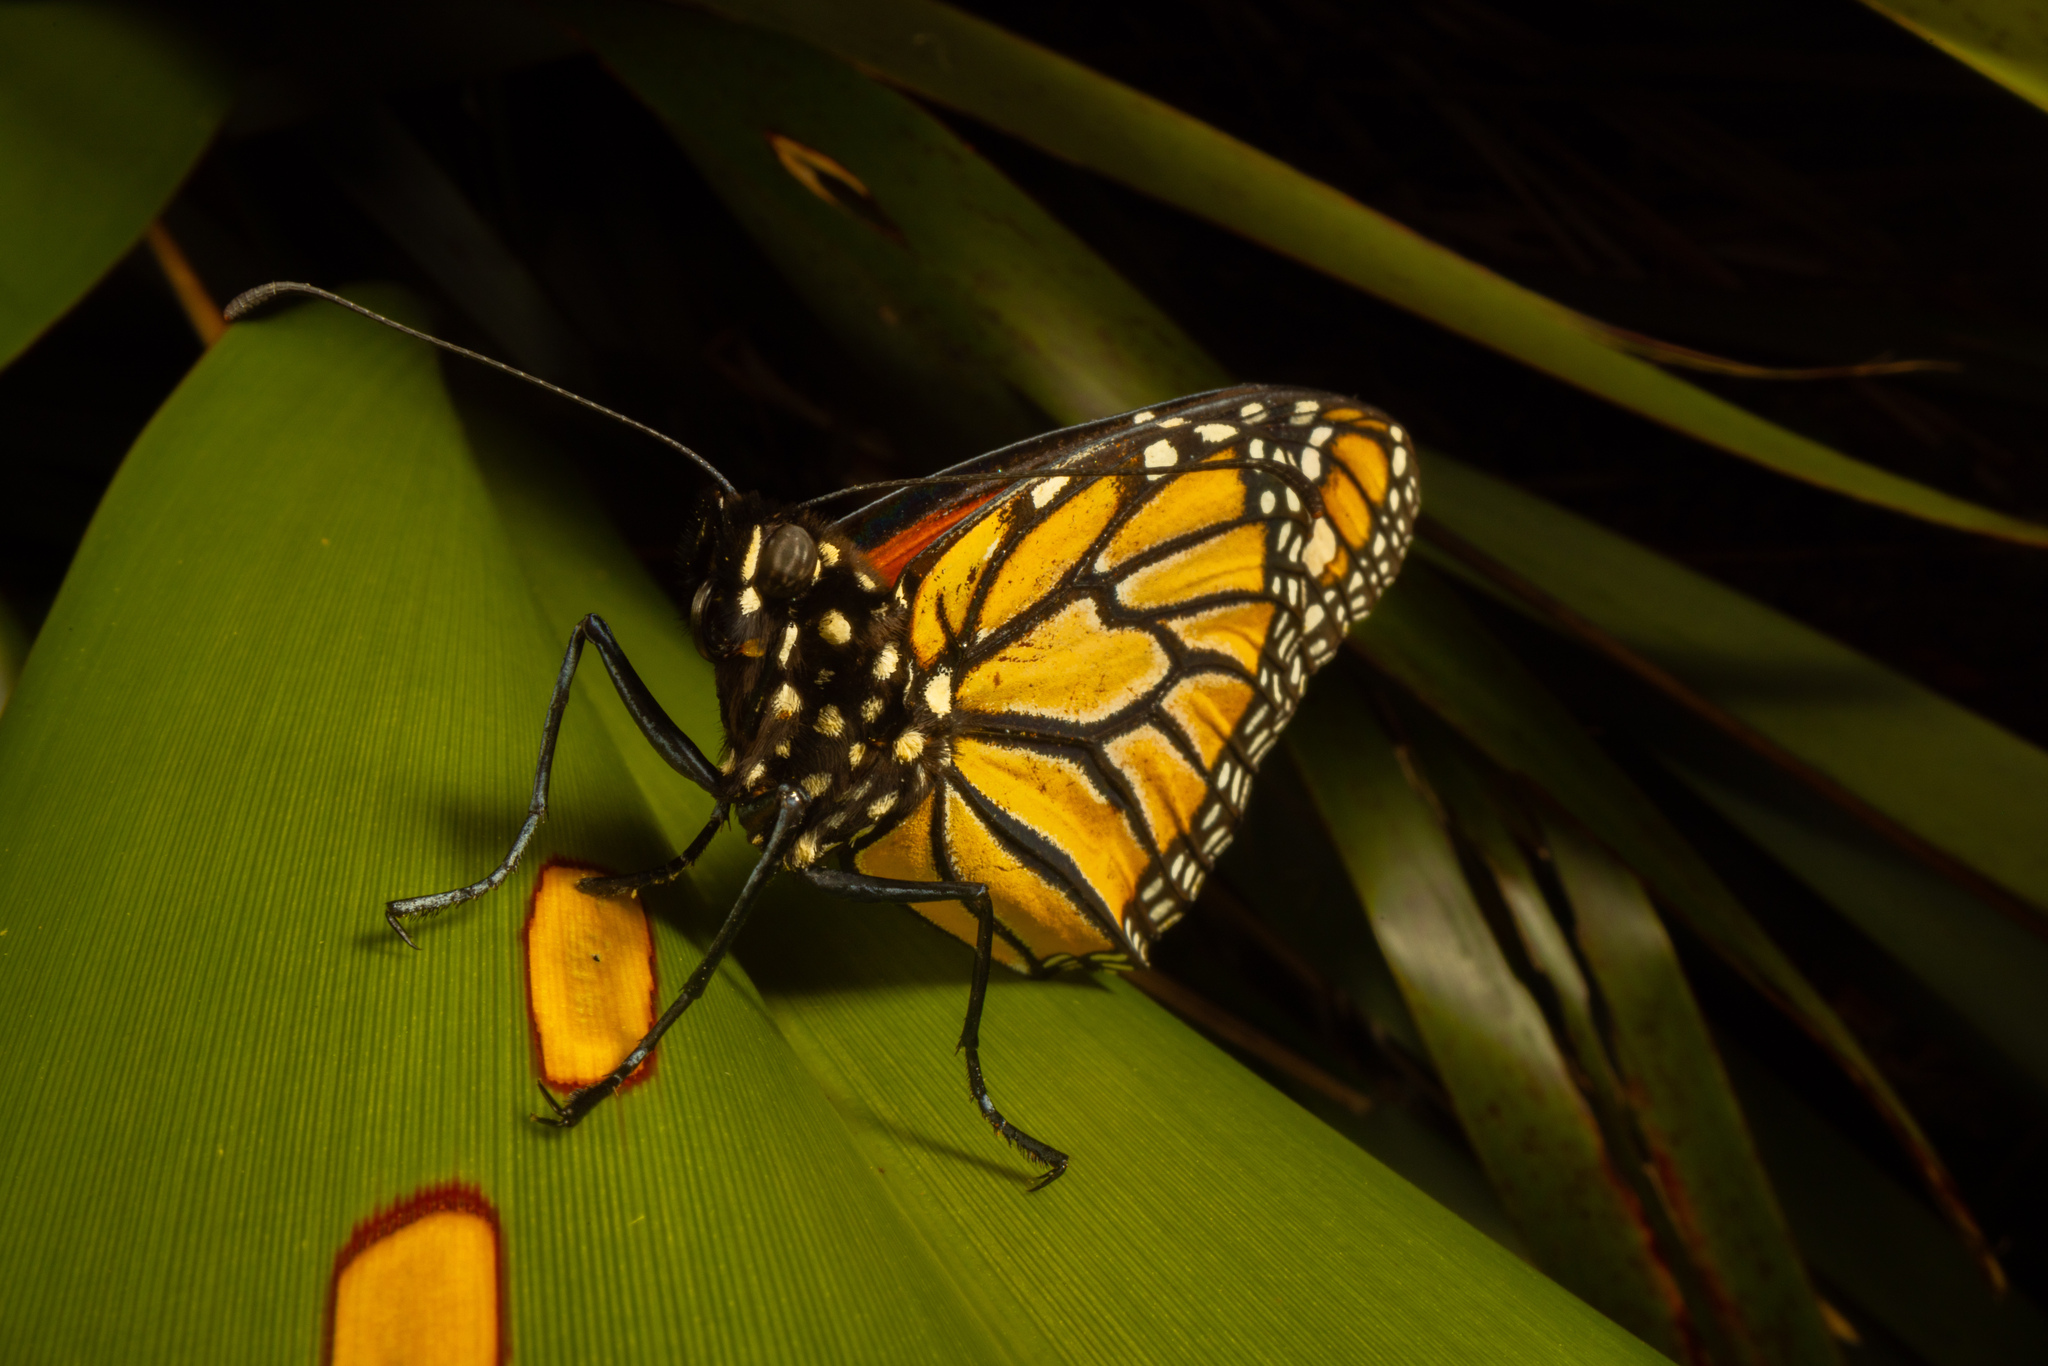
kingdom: Animalia
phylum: Arthropoda
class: Insecta
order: Lepidoptera
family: Nymphalidae
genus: Danaus
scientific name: Danaus plexippus
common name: Monarch
